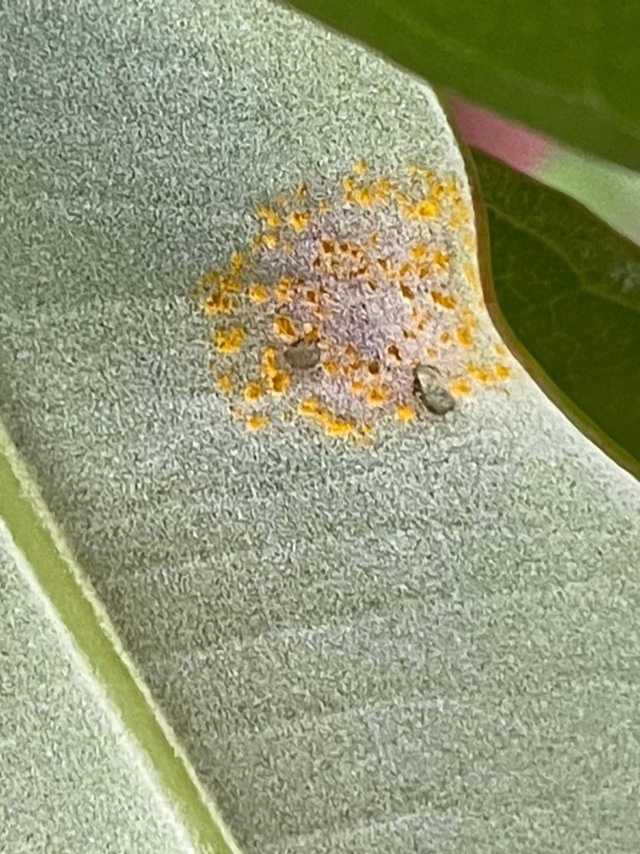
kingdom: Fungi
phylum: Basidiomycota
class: Pucciniomycetes
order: Pucciniales
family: Sphaerophragmiaceae
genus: Austropuccinia
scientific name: Austropuccinia psidii
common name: Myrtle rust
